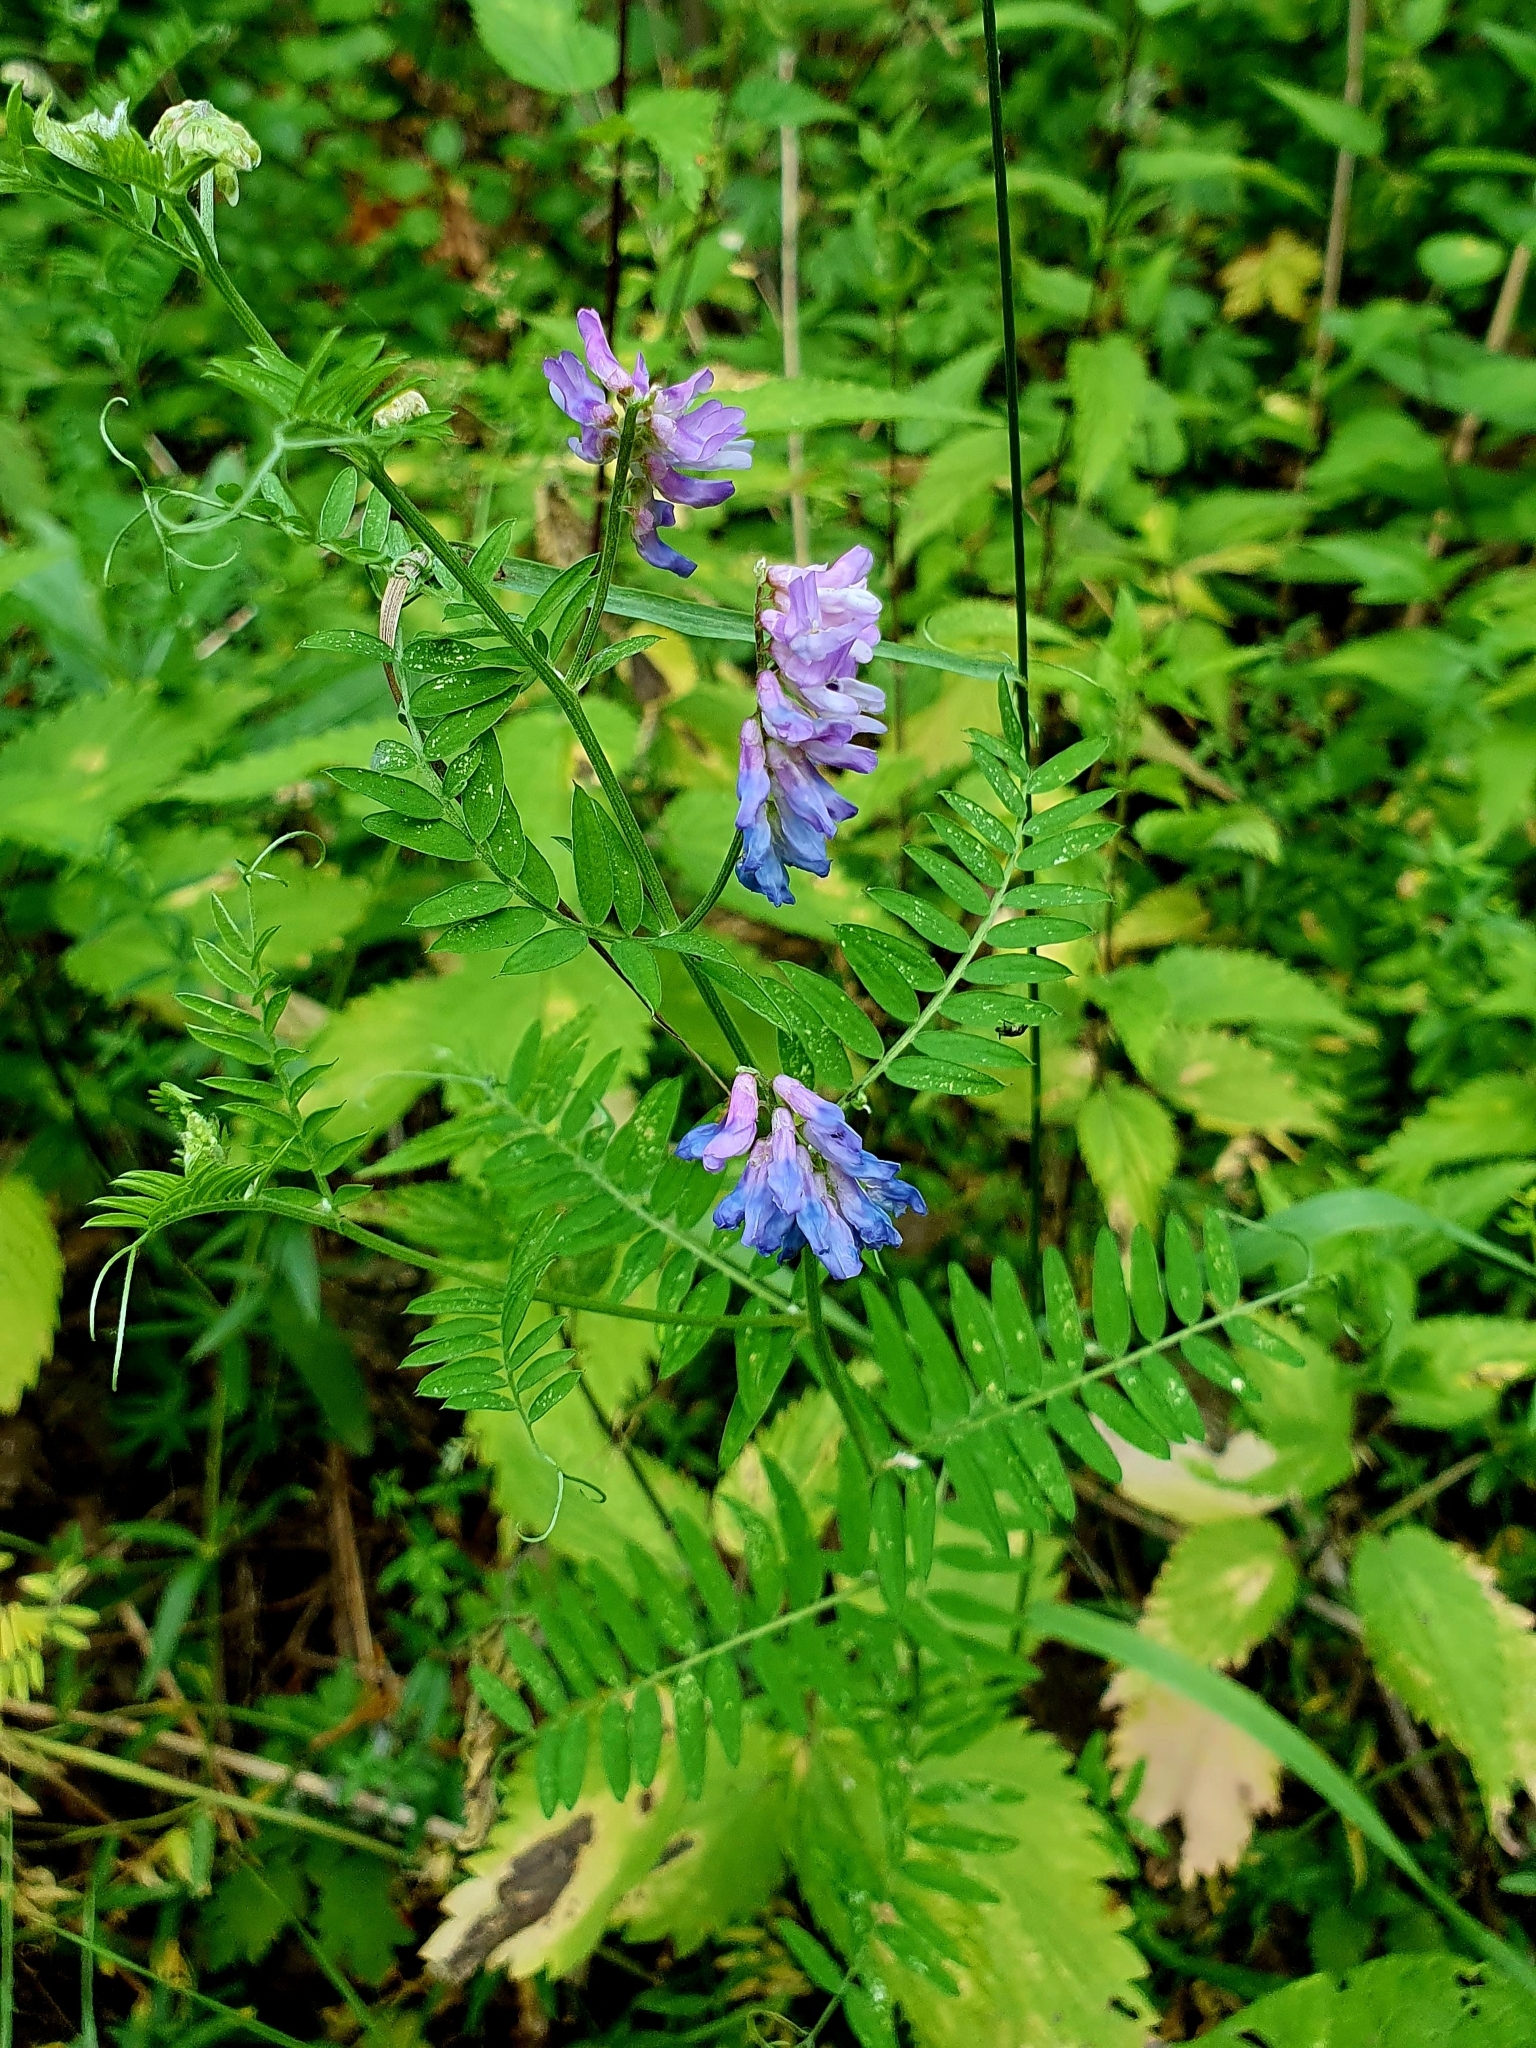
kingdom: Plantae
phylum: Tracheophyta
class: Magnoliopsida
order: Fabales
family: Fabaceae
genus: Vicia
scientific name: Vicia cracca
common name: Bird vetch
